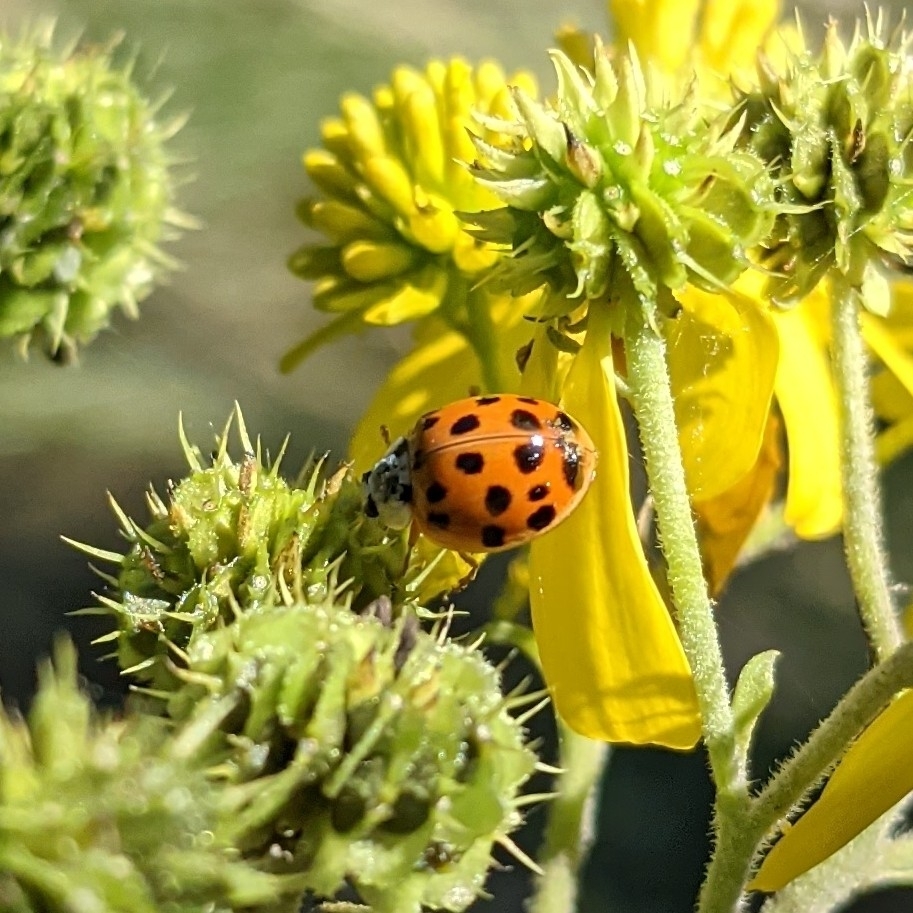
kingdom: Animalia
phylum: Arthropoda
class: Insecta
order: Coleoptera
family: Coccinellidae
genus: Harmonia
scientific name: Harmonia axyridis
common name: Harlequin ladybird
